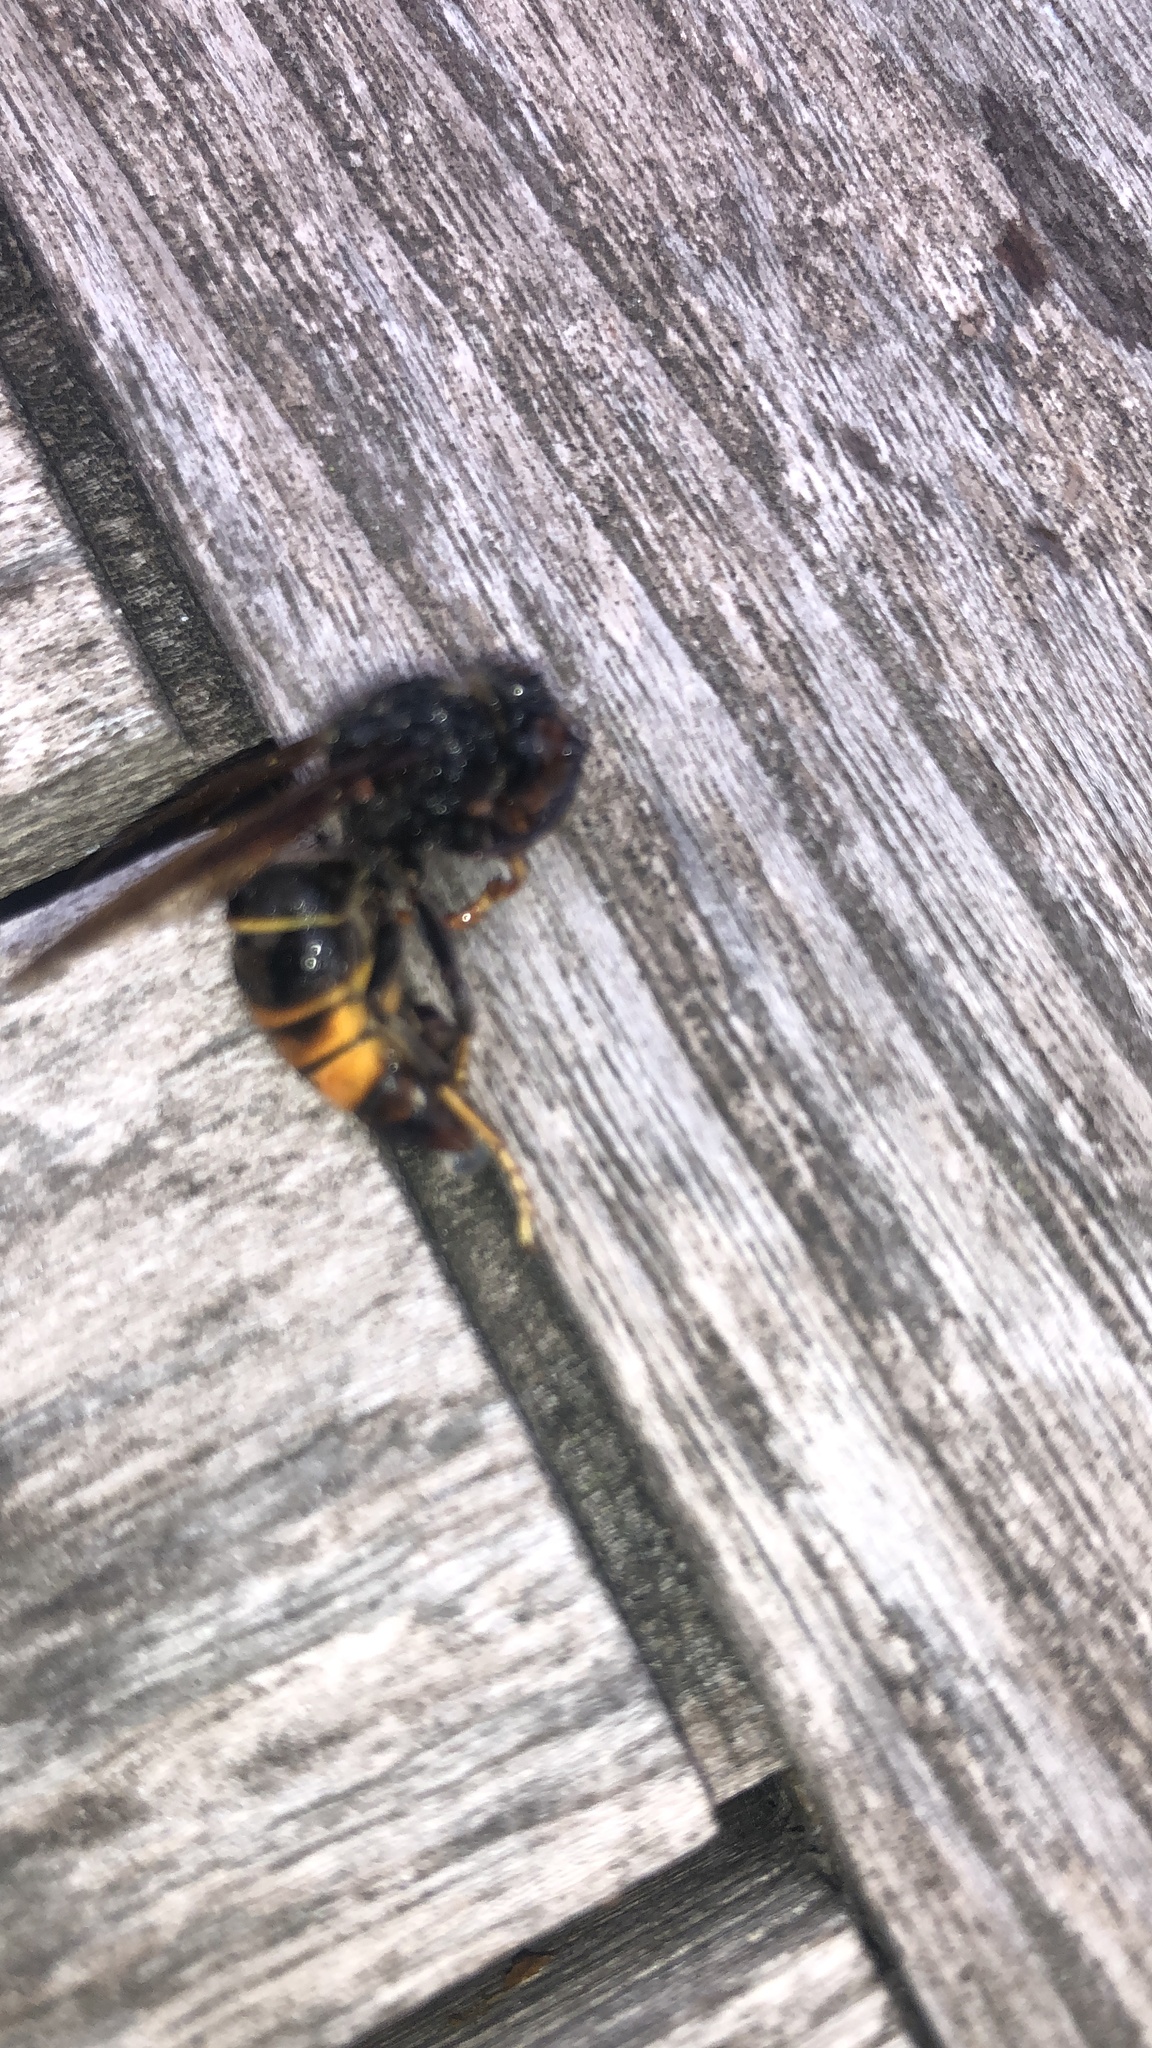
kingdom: Animalia
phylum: Arthropoda
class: Insecta
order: Hymenoptera
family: Vespidae
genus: Vespa
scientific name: Vespa velutina
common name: Asian hornet
